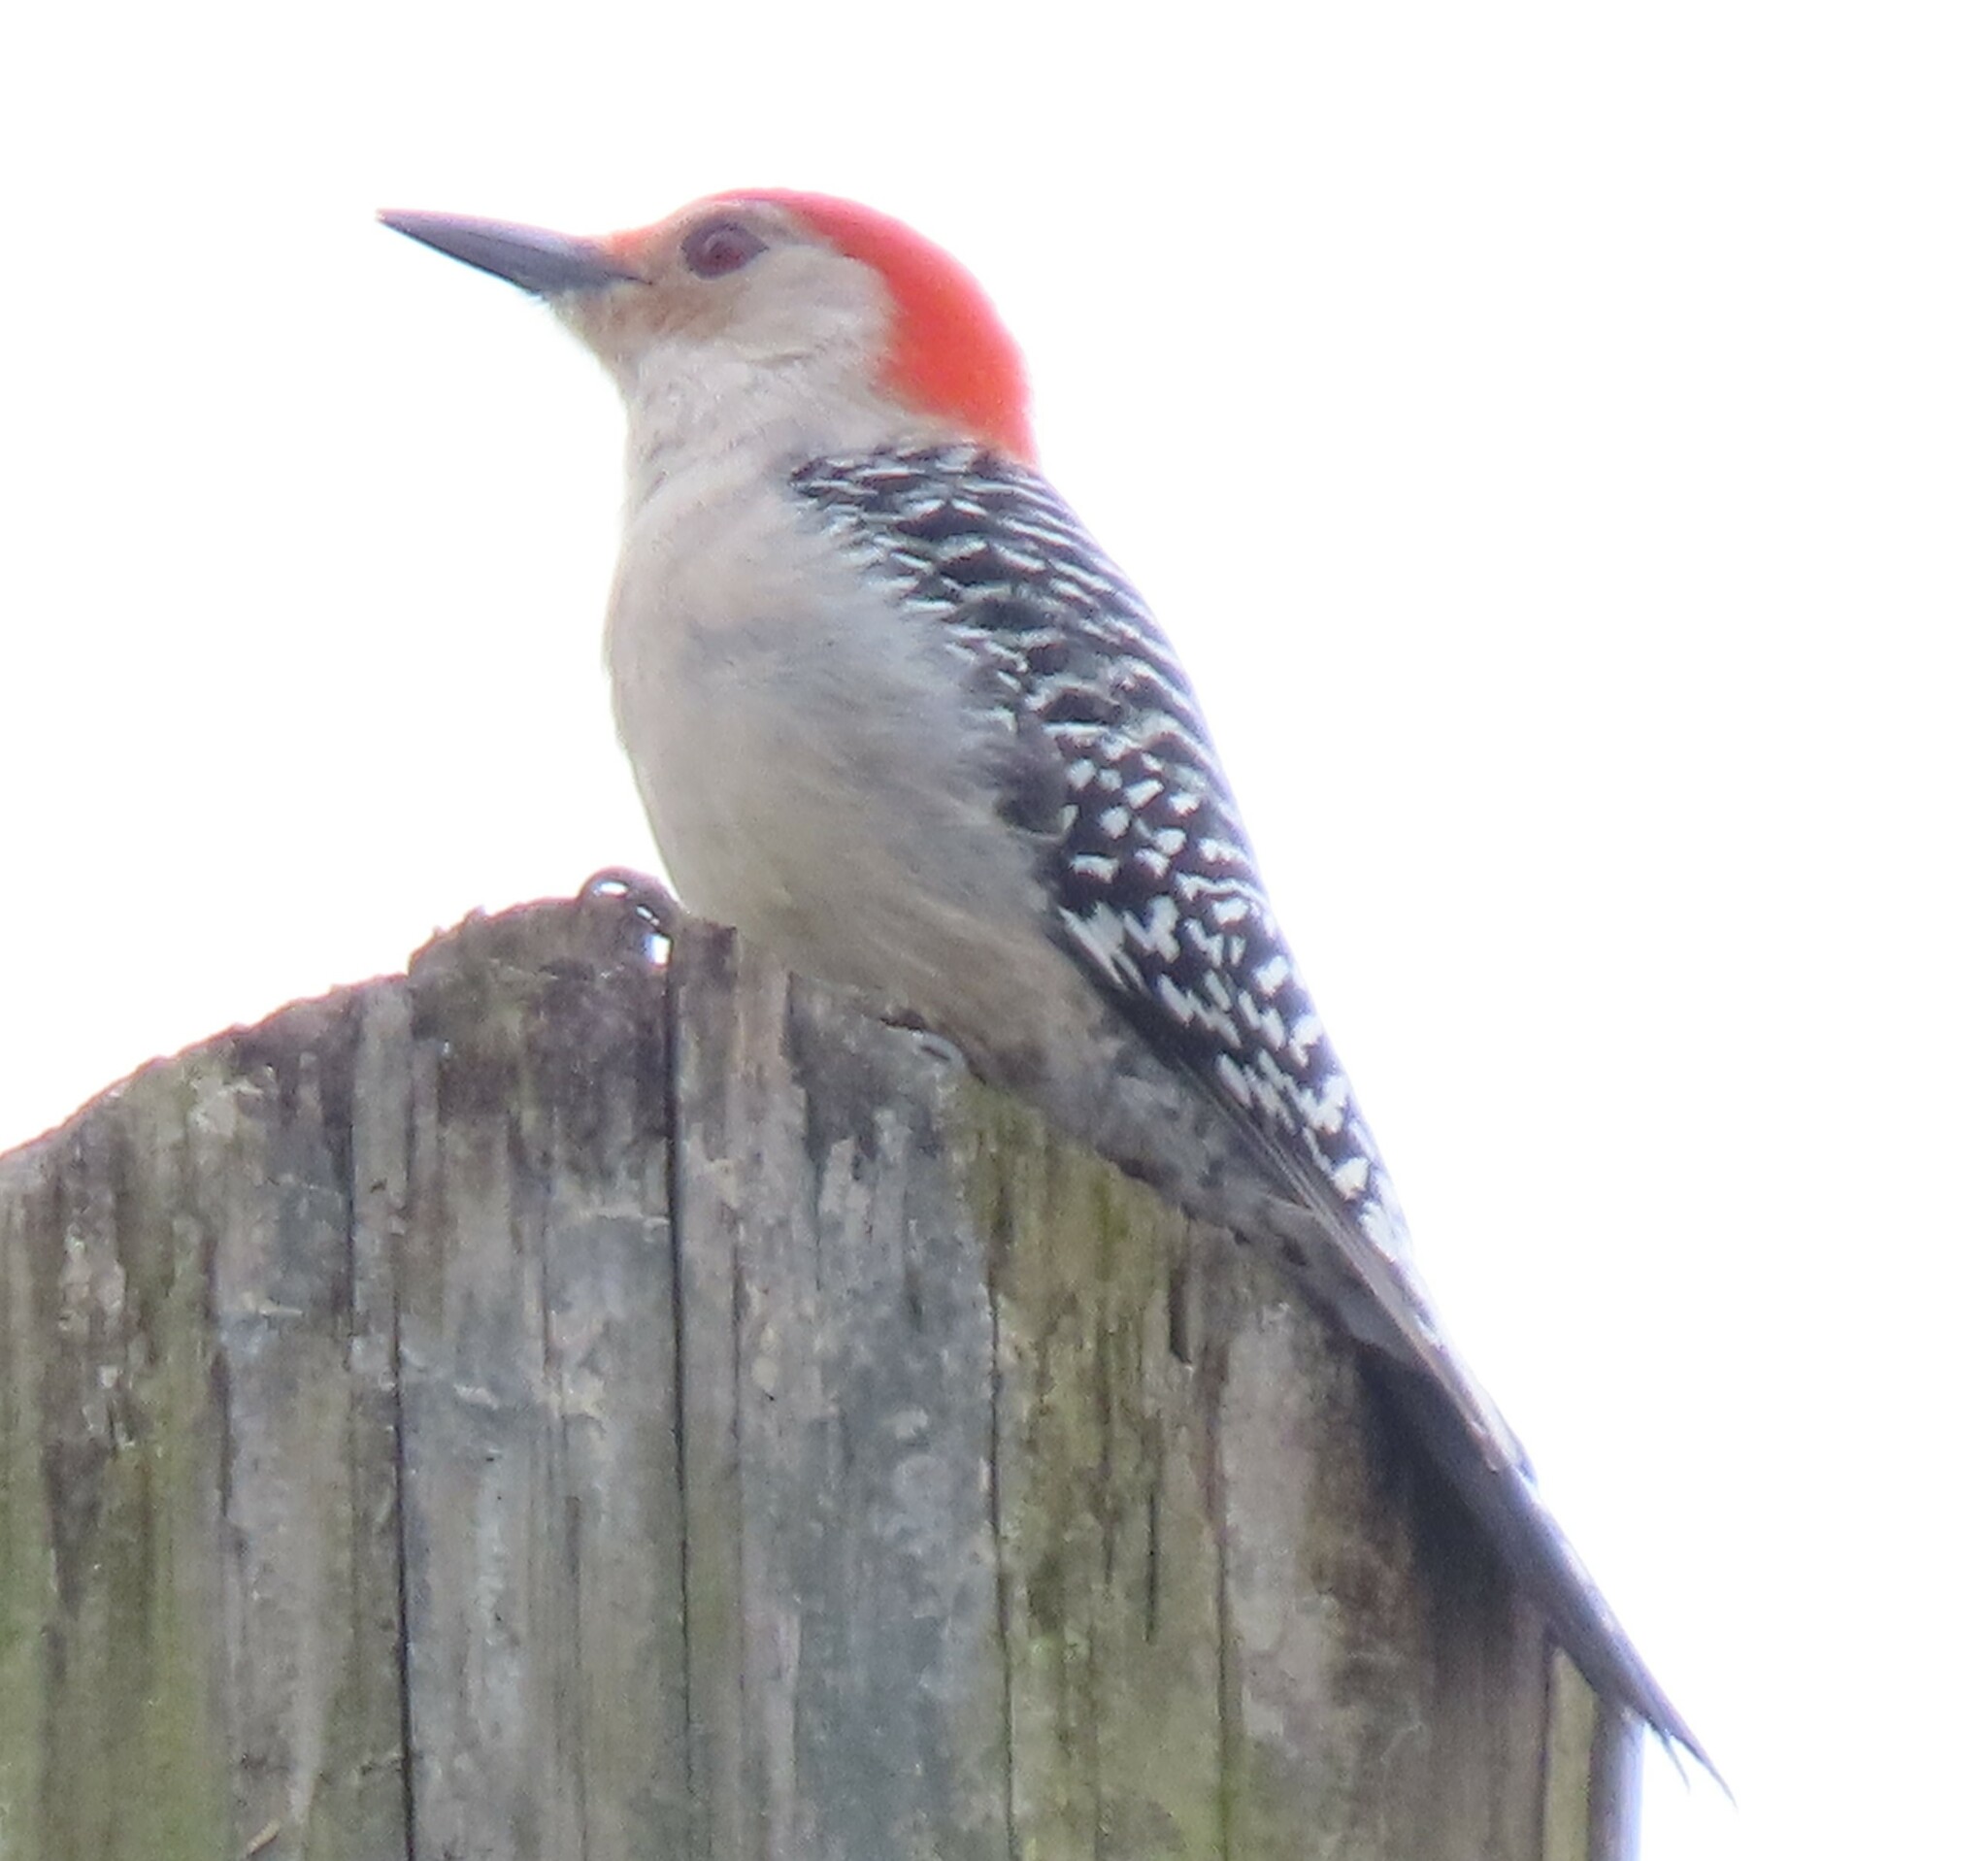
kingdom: Animalia
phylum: Chordata
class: Aves
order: Piciformes
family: Picidae
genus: Melanerpes
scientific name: Melanerpes carolinus
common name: Red-bellied woodpecker
